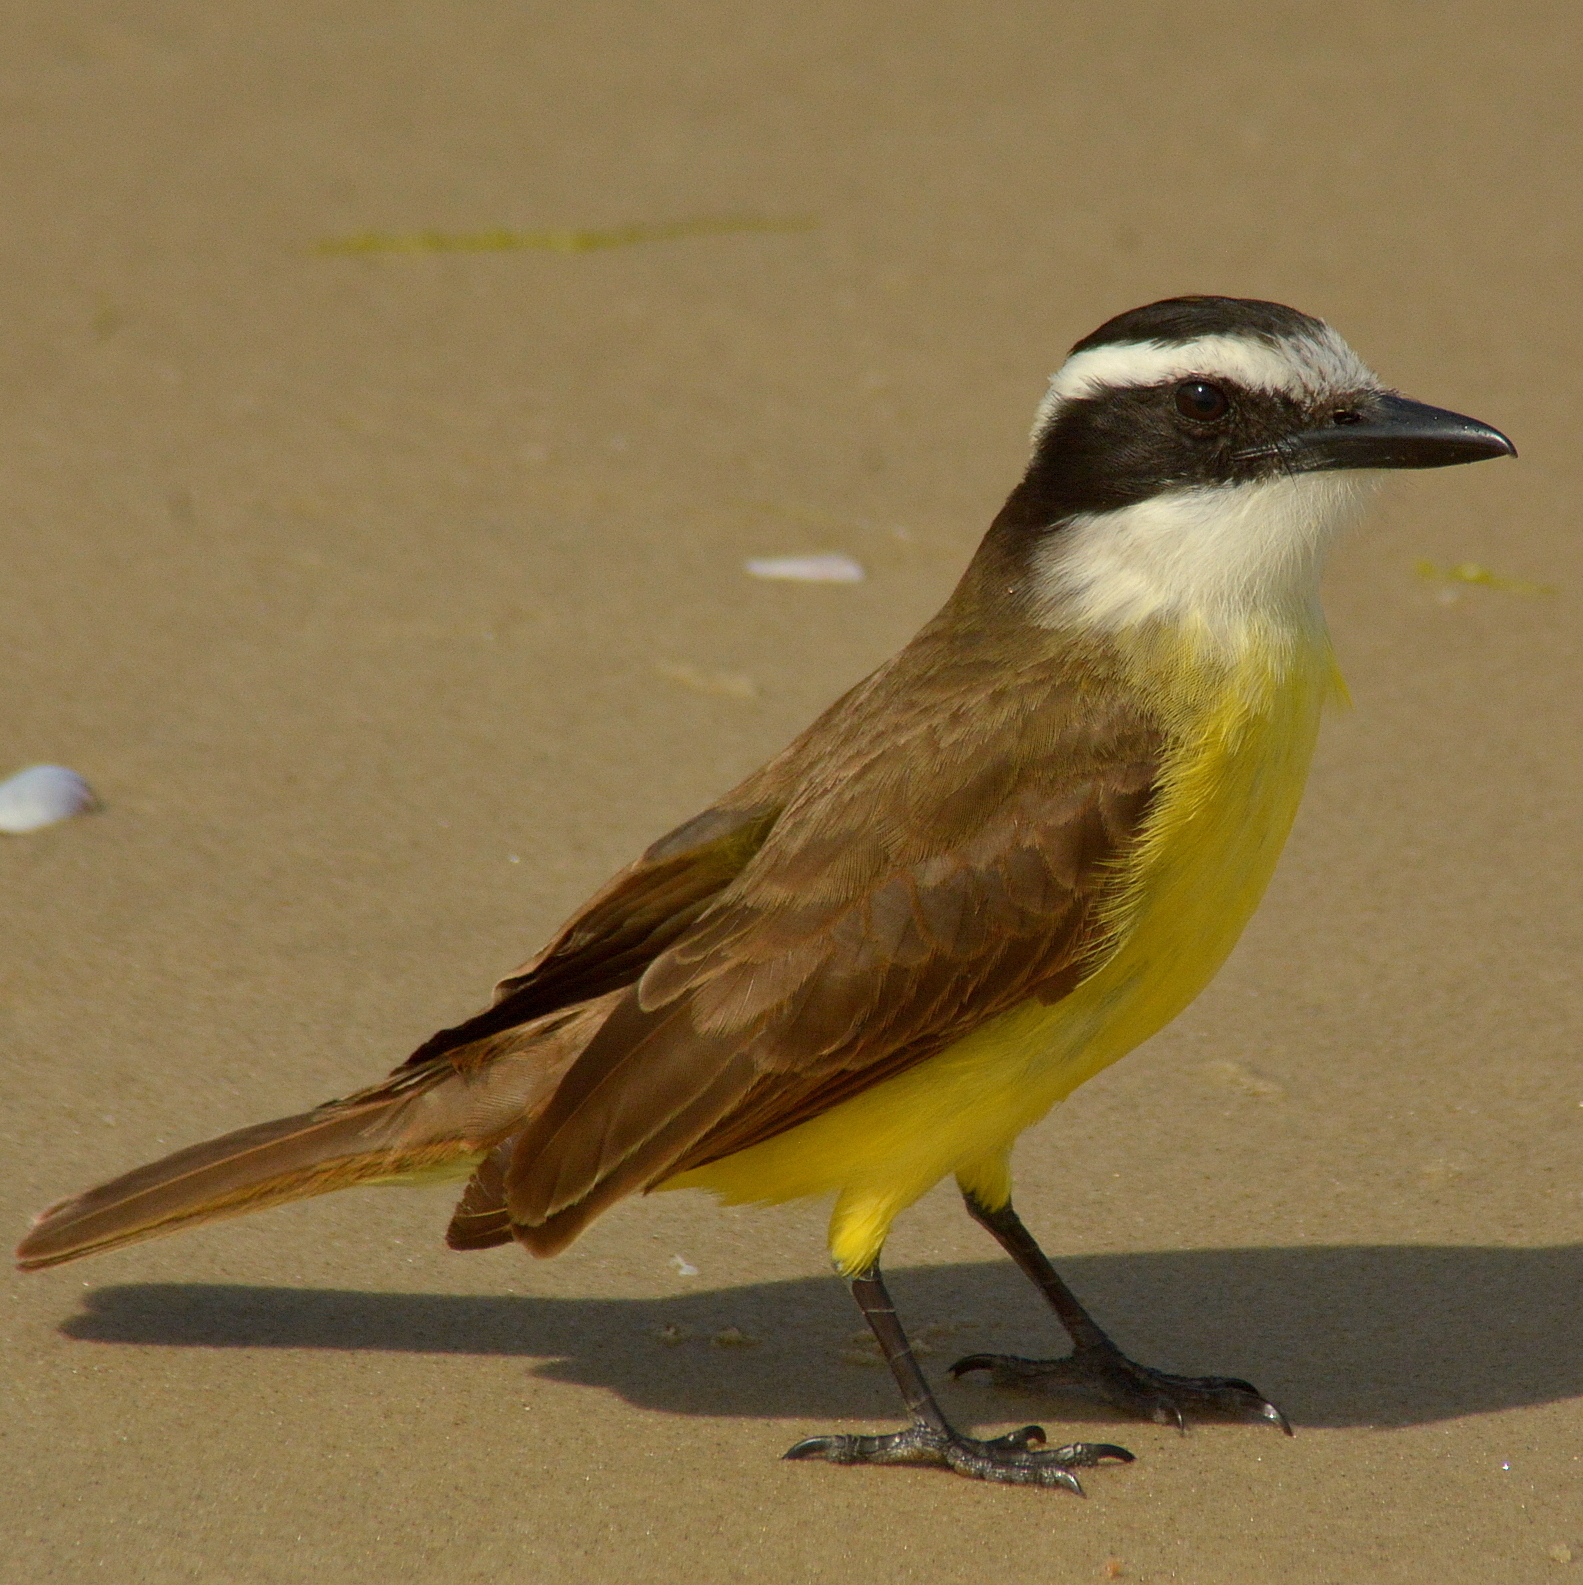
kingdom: Animalia
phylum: Chordata
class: Aves
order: Passeriformes
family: Tyrannidae
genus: Pitangus
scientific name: Pitangus sulphuratus
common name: Great kiskadee
